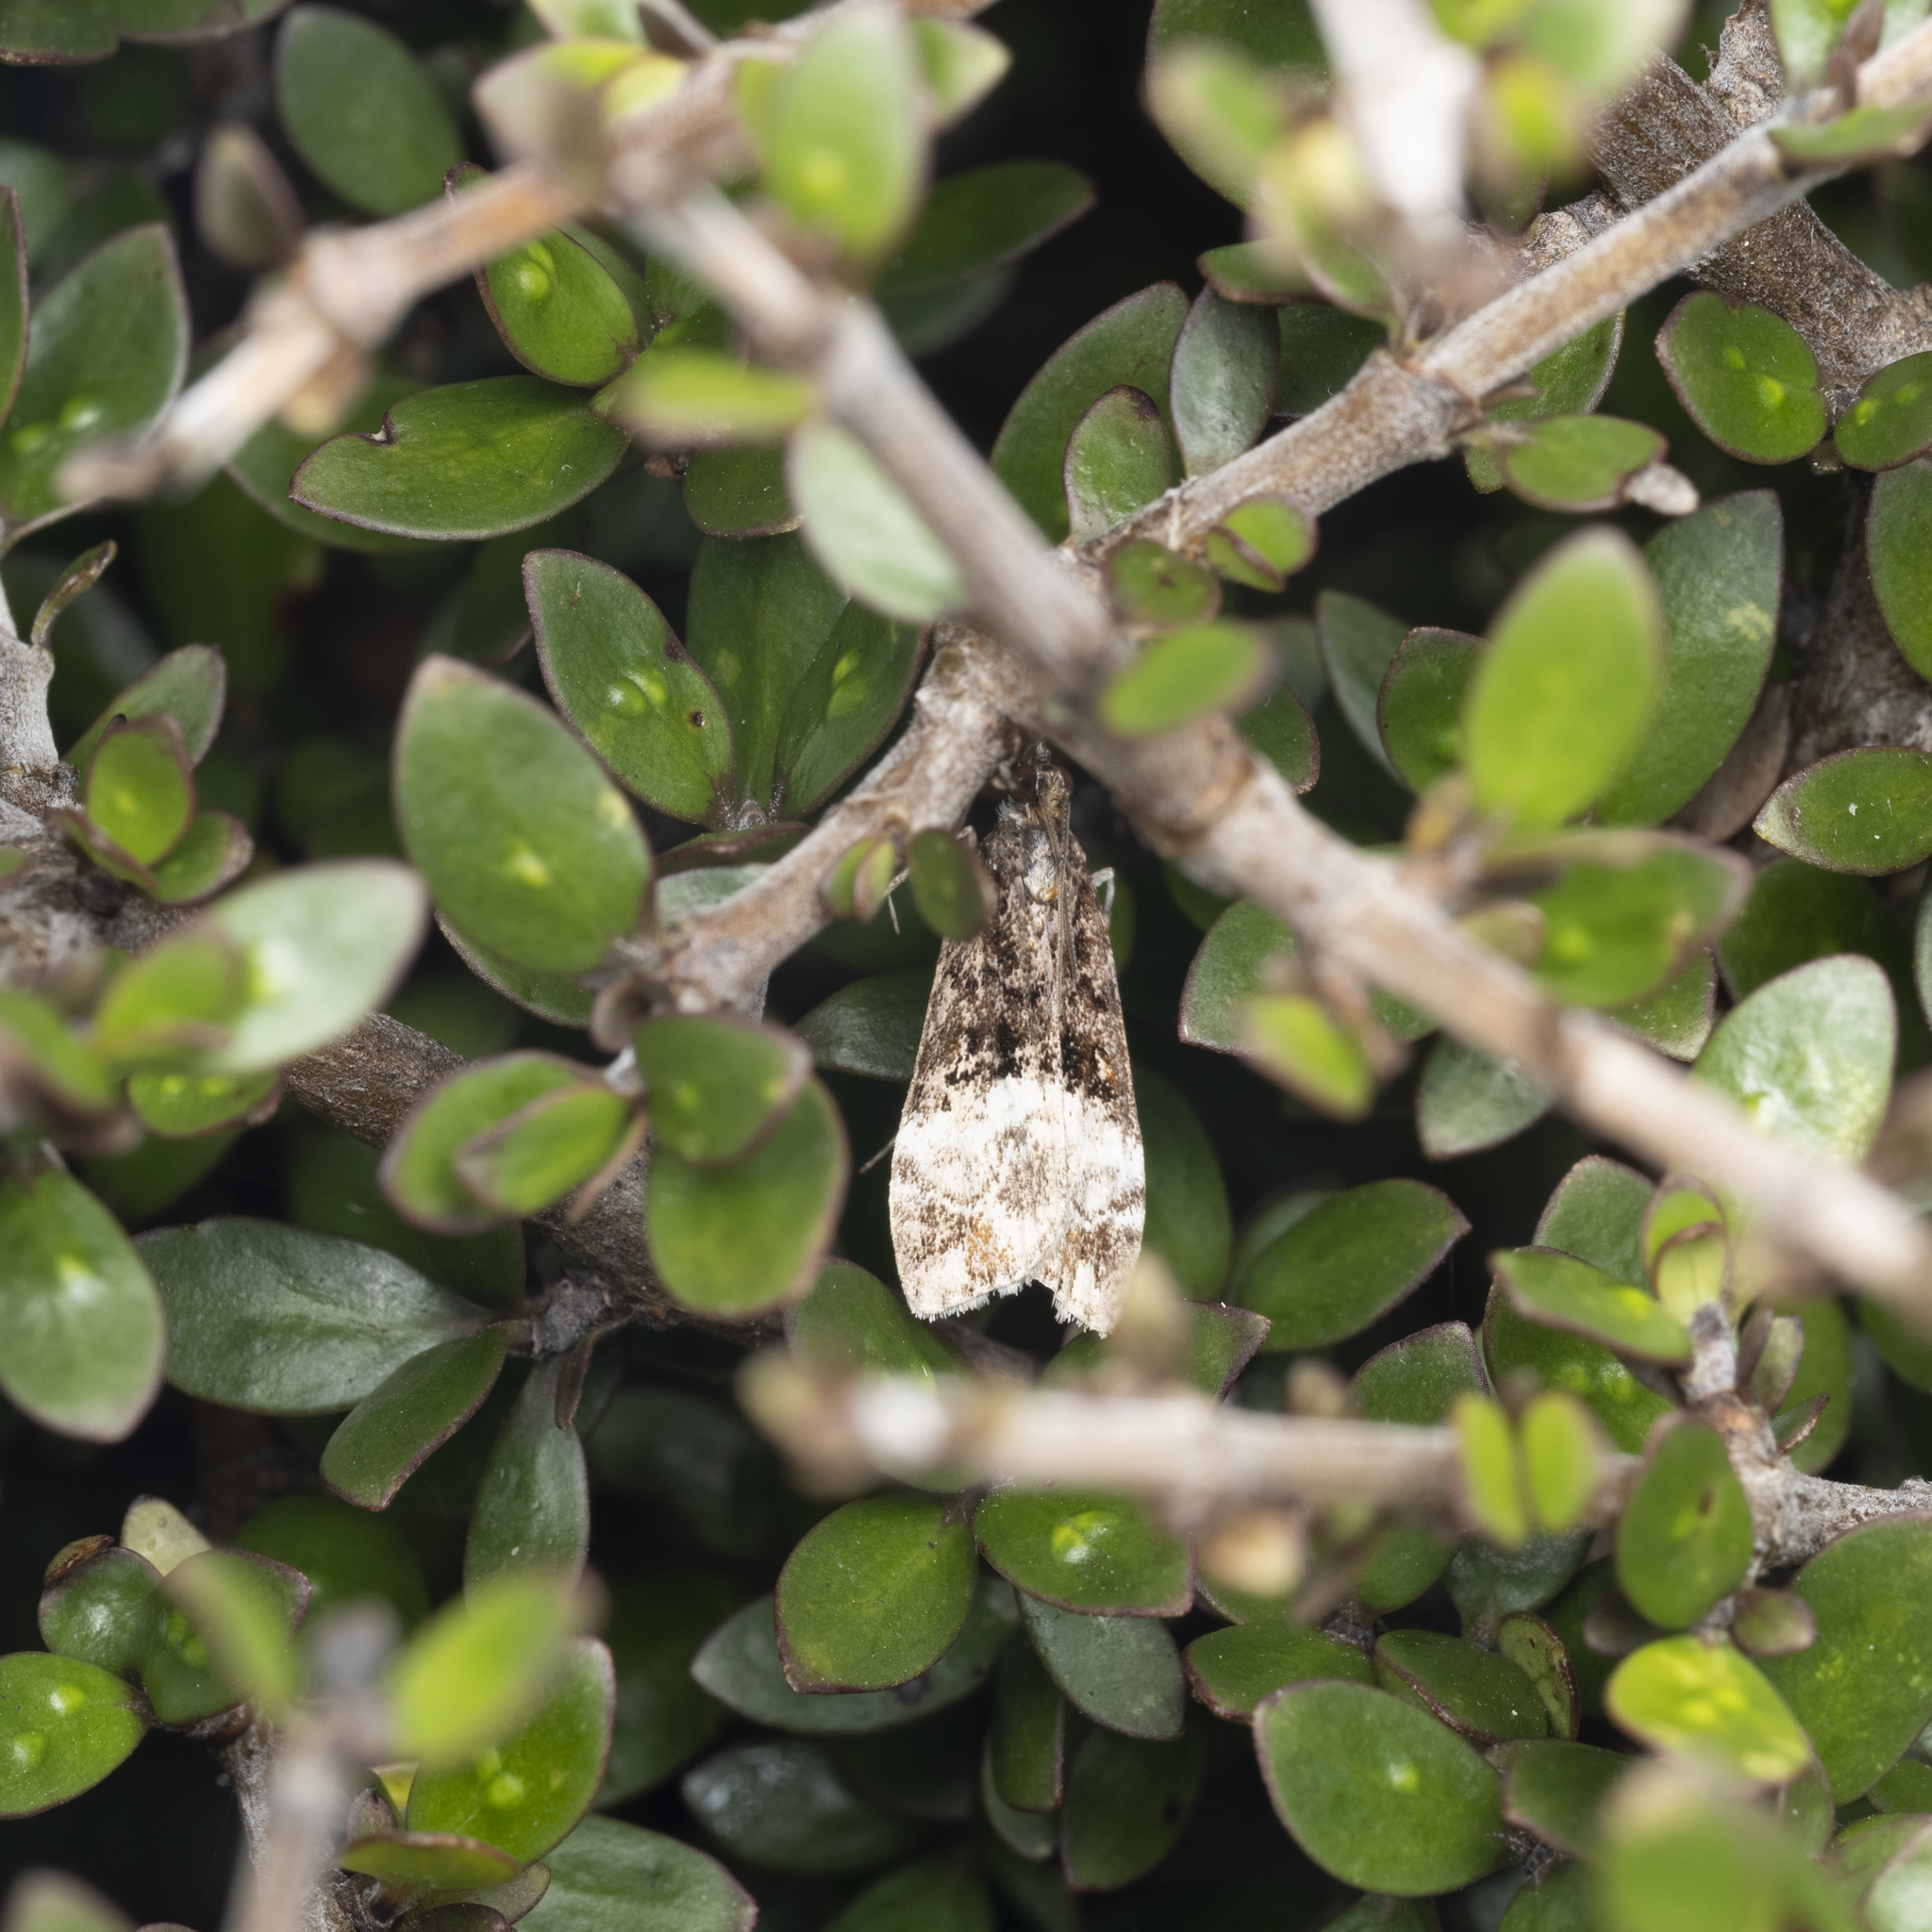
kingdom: Animalia
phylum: Arthropoda
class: Insecta
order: Lepidoptera
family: Crambidae
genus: Scoparia
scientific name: Scoparia minusculalis
